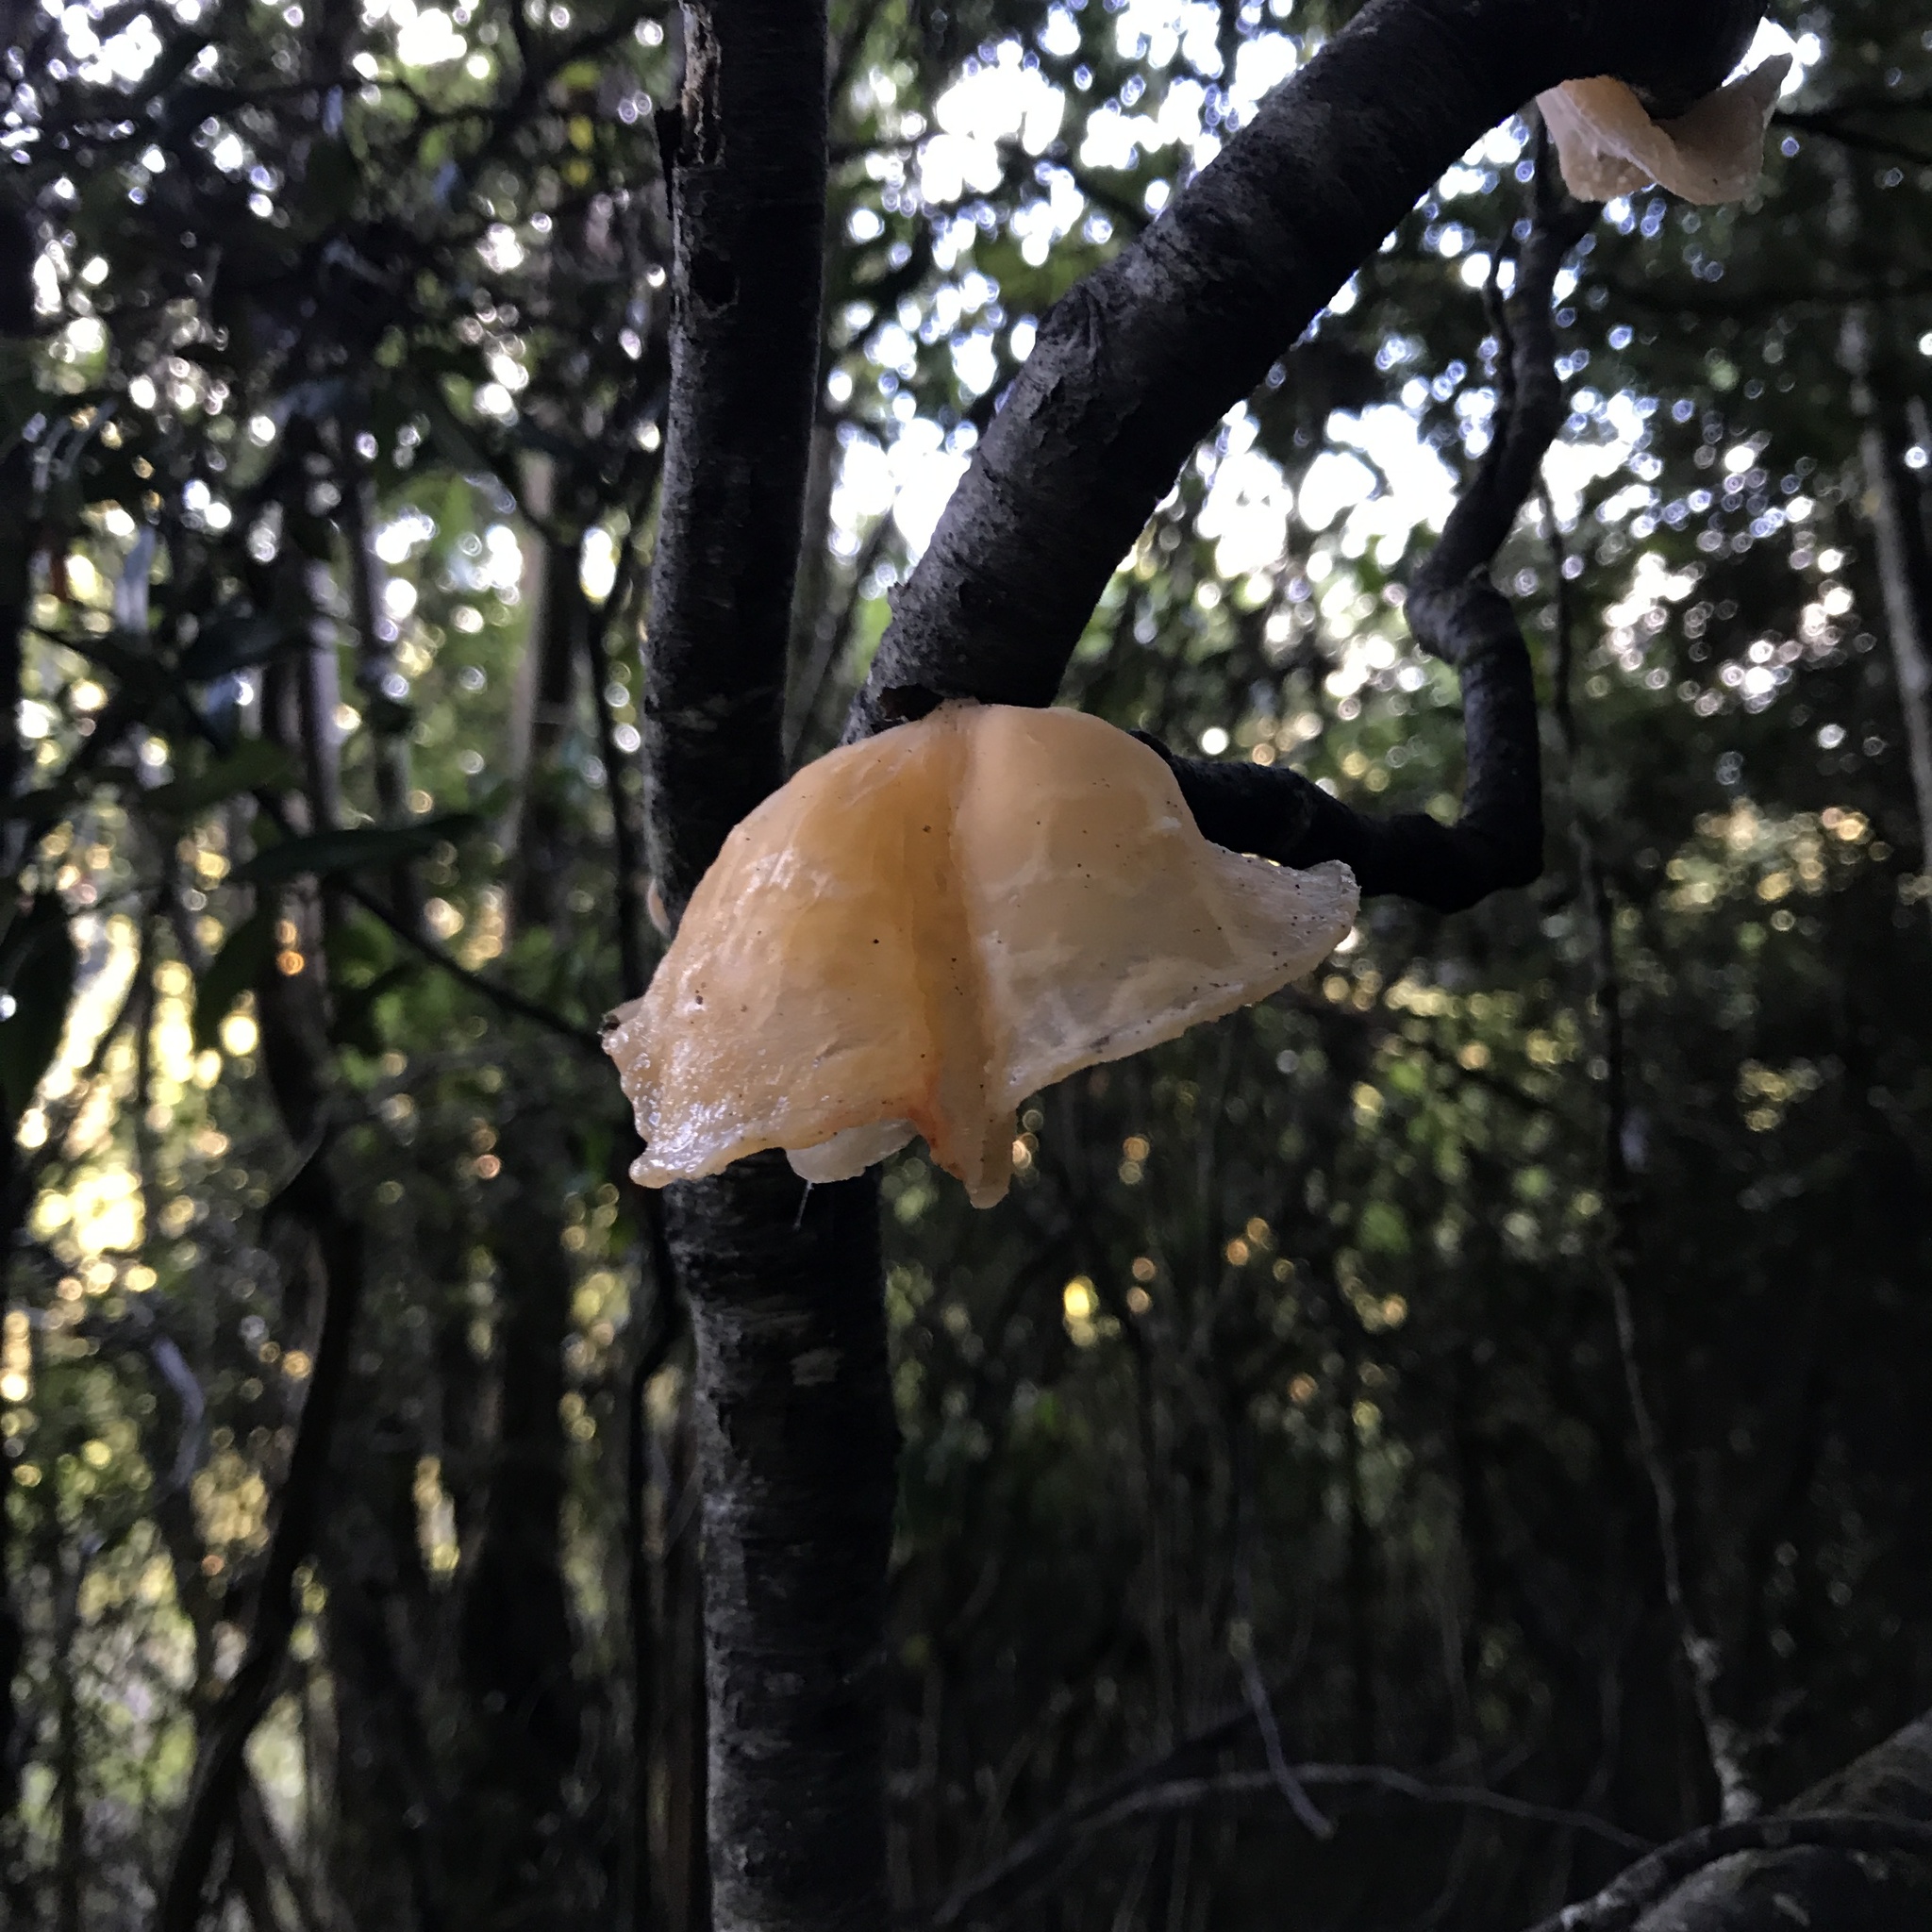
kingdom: Fungi
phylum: Basidiomycota
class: Agaricomycetes
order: Russulales
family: Stereaceae
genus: Aleurodiscus
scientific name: Aleurodiscus vitellinus
